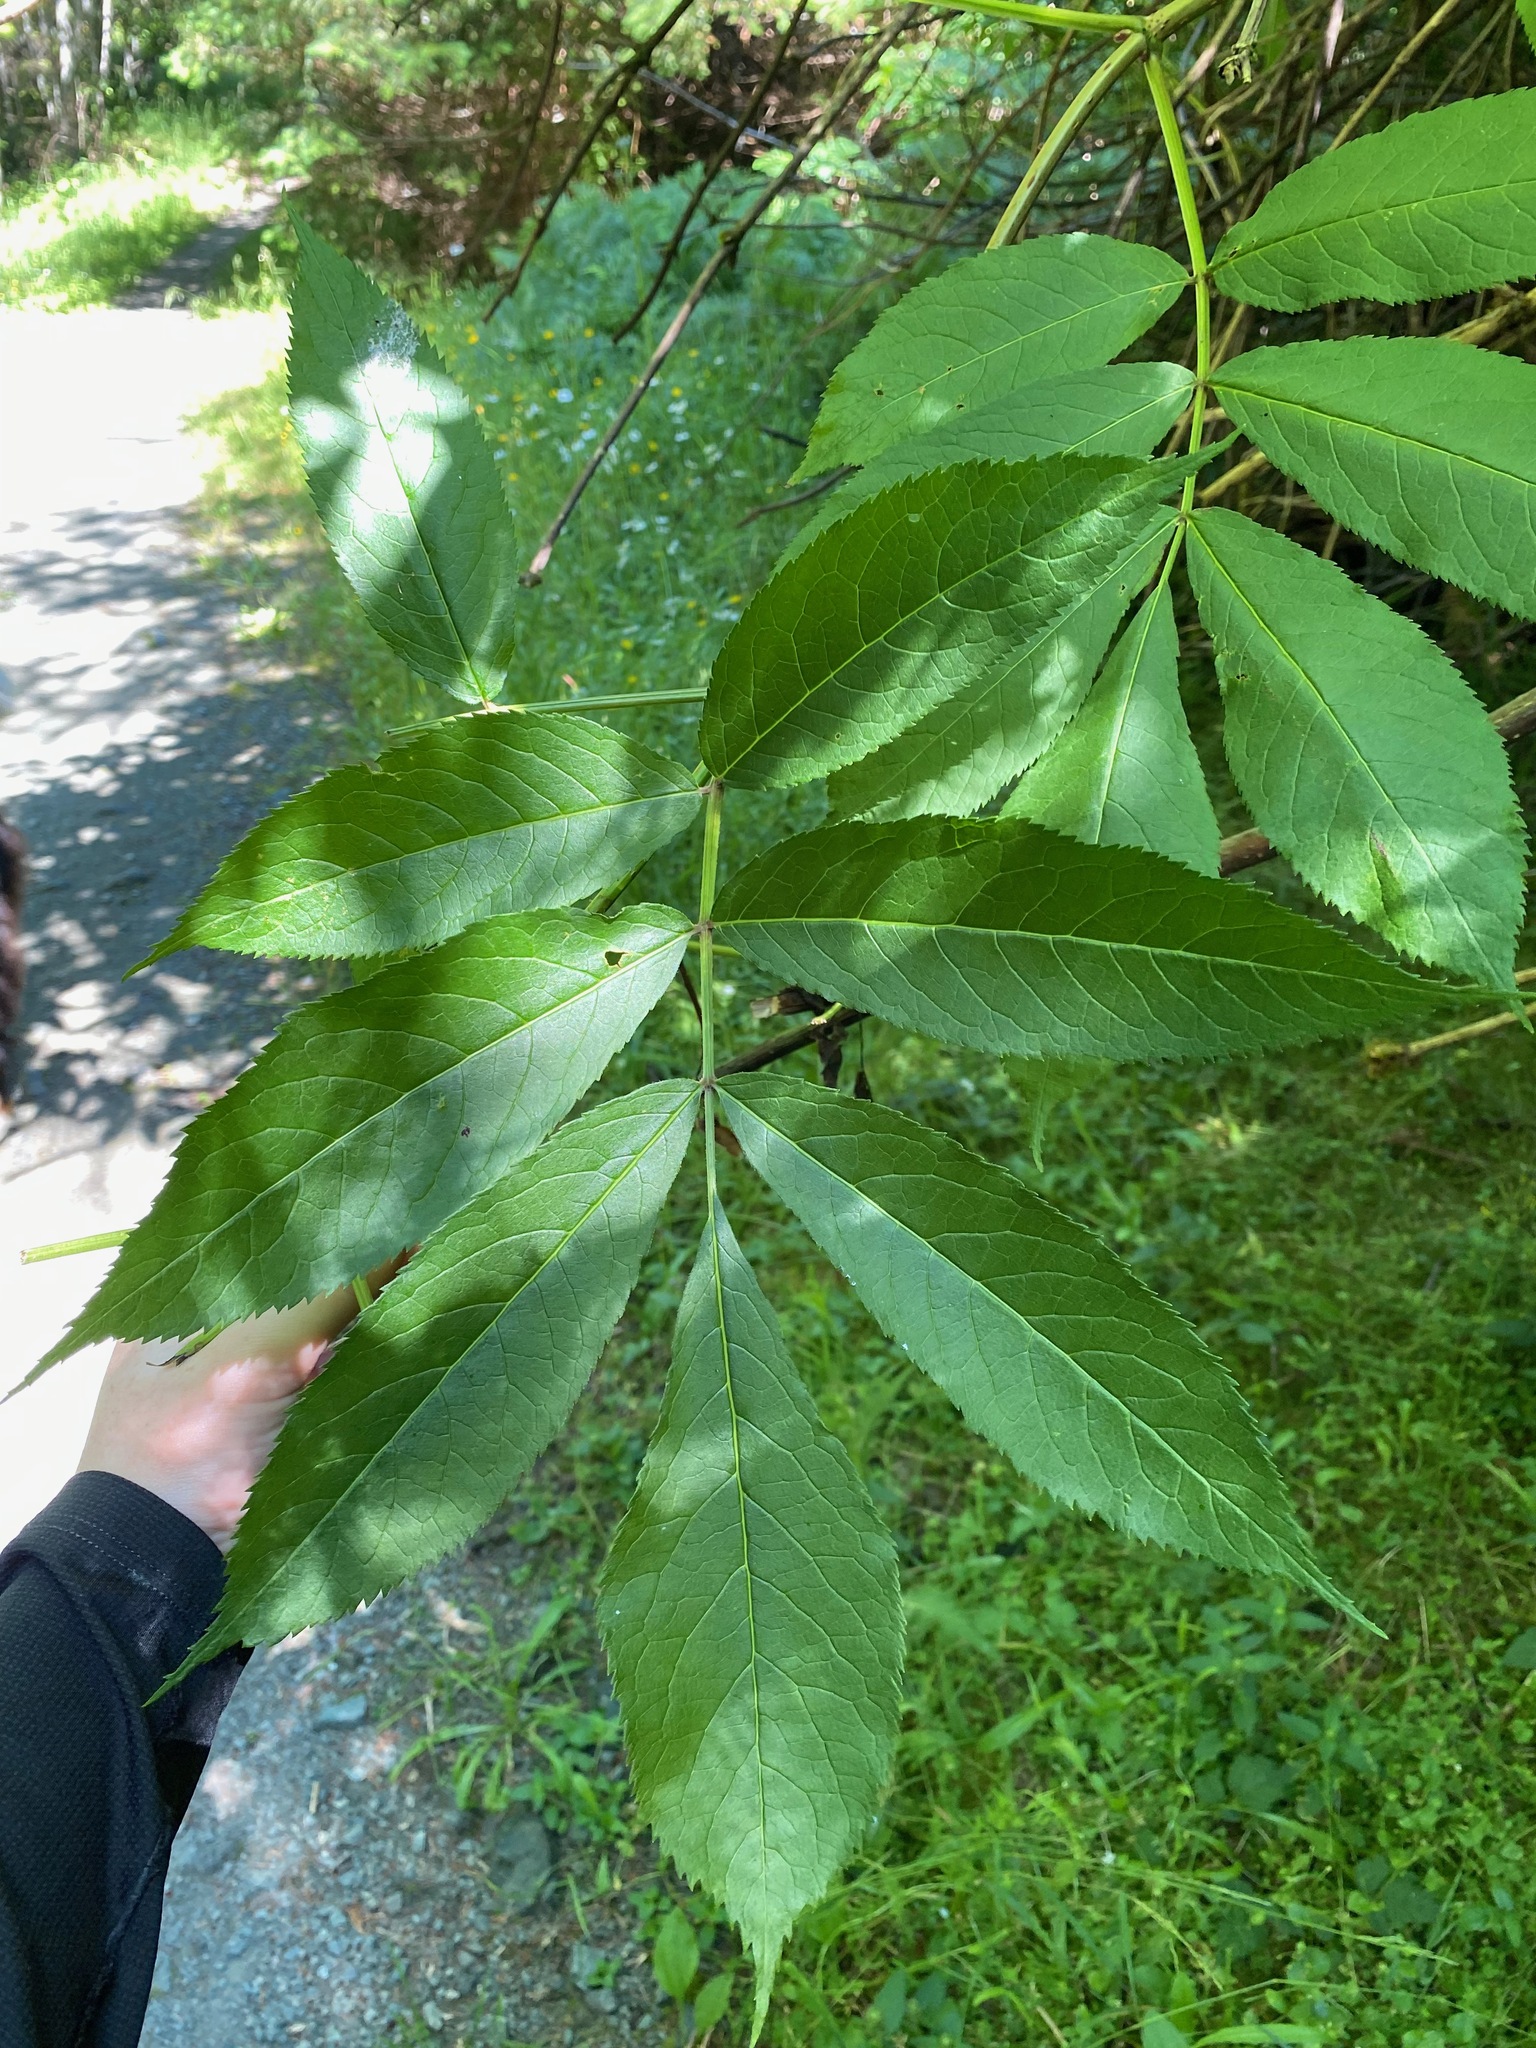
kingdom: Plantae
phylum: Tracheophyta
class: Magnoliopsida
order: Dipsacales
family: Viburnaceae
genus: Sambucus
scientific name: Sambucus racemosa
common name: Red-berried elder
